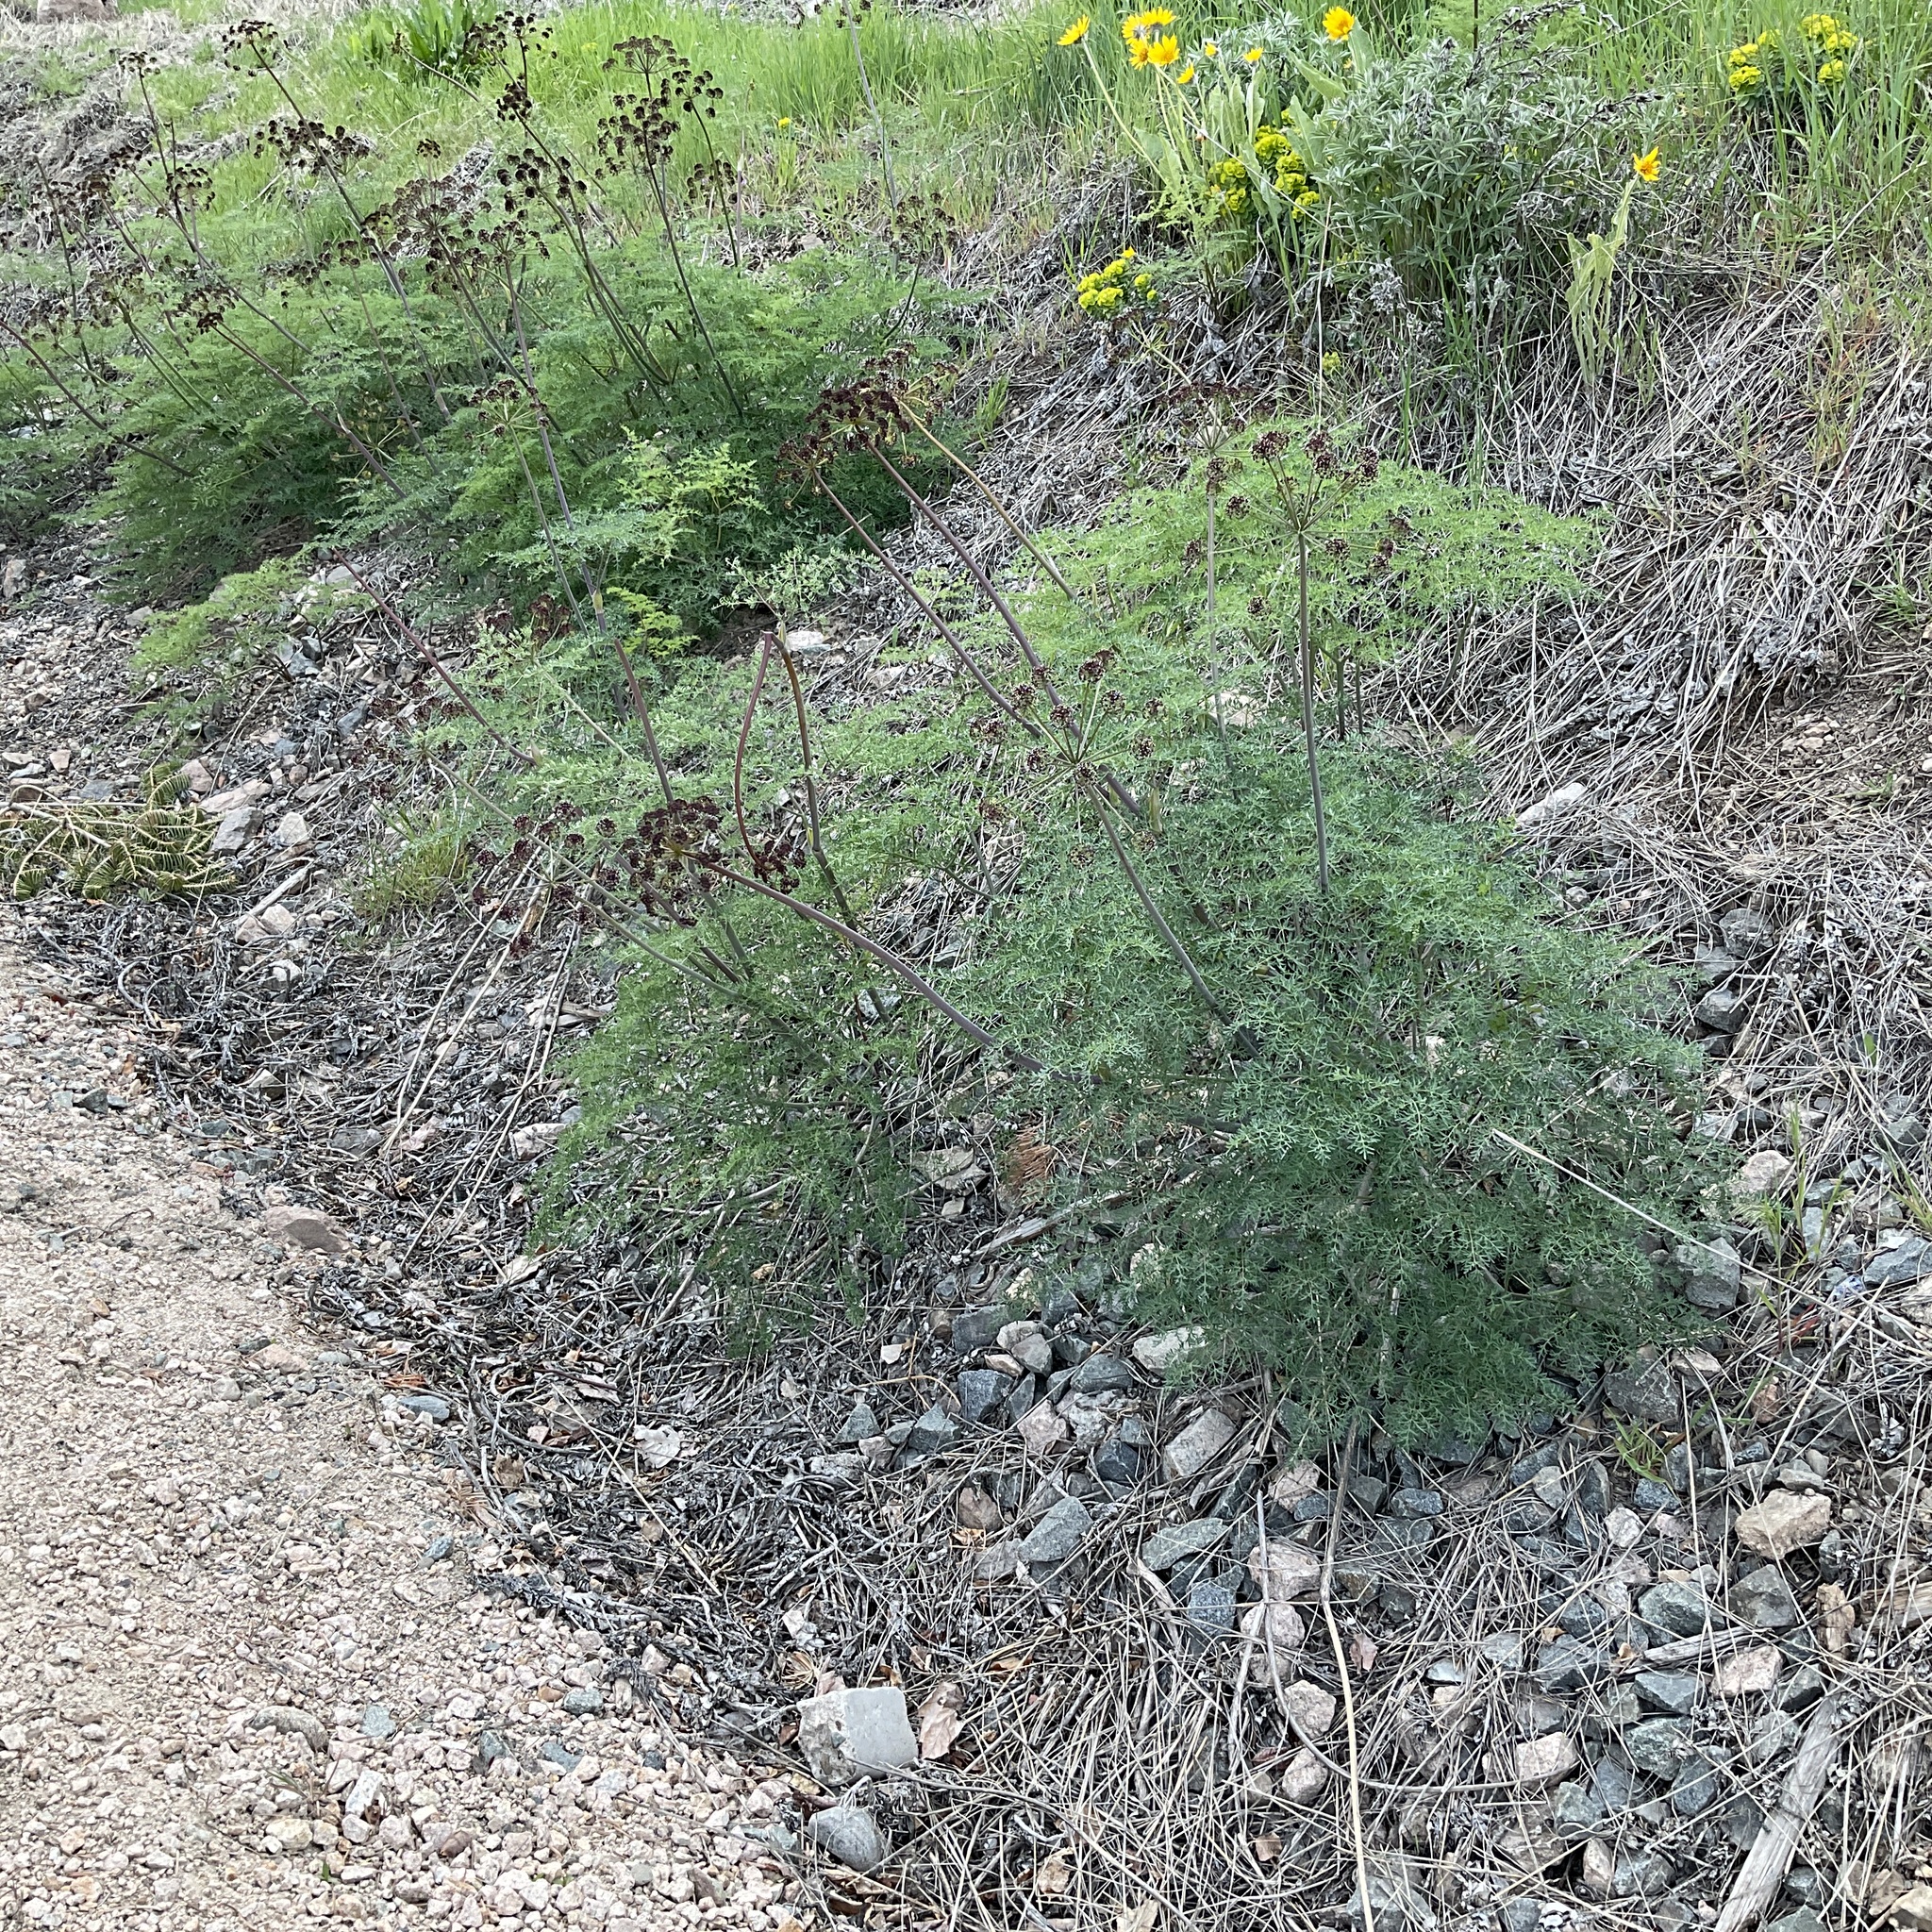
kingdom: Plantae
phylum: Tracheophyta
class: Magnoliopsida
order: Apiales
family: Apiaceae
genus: Lomatium
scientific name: Lomatium multifidum
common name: Carrot-leaved biscuitroot
